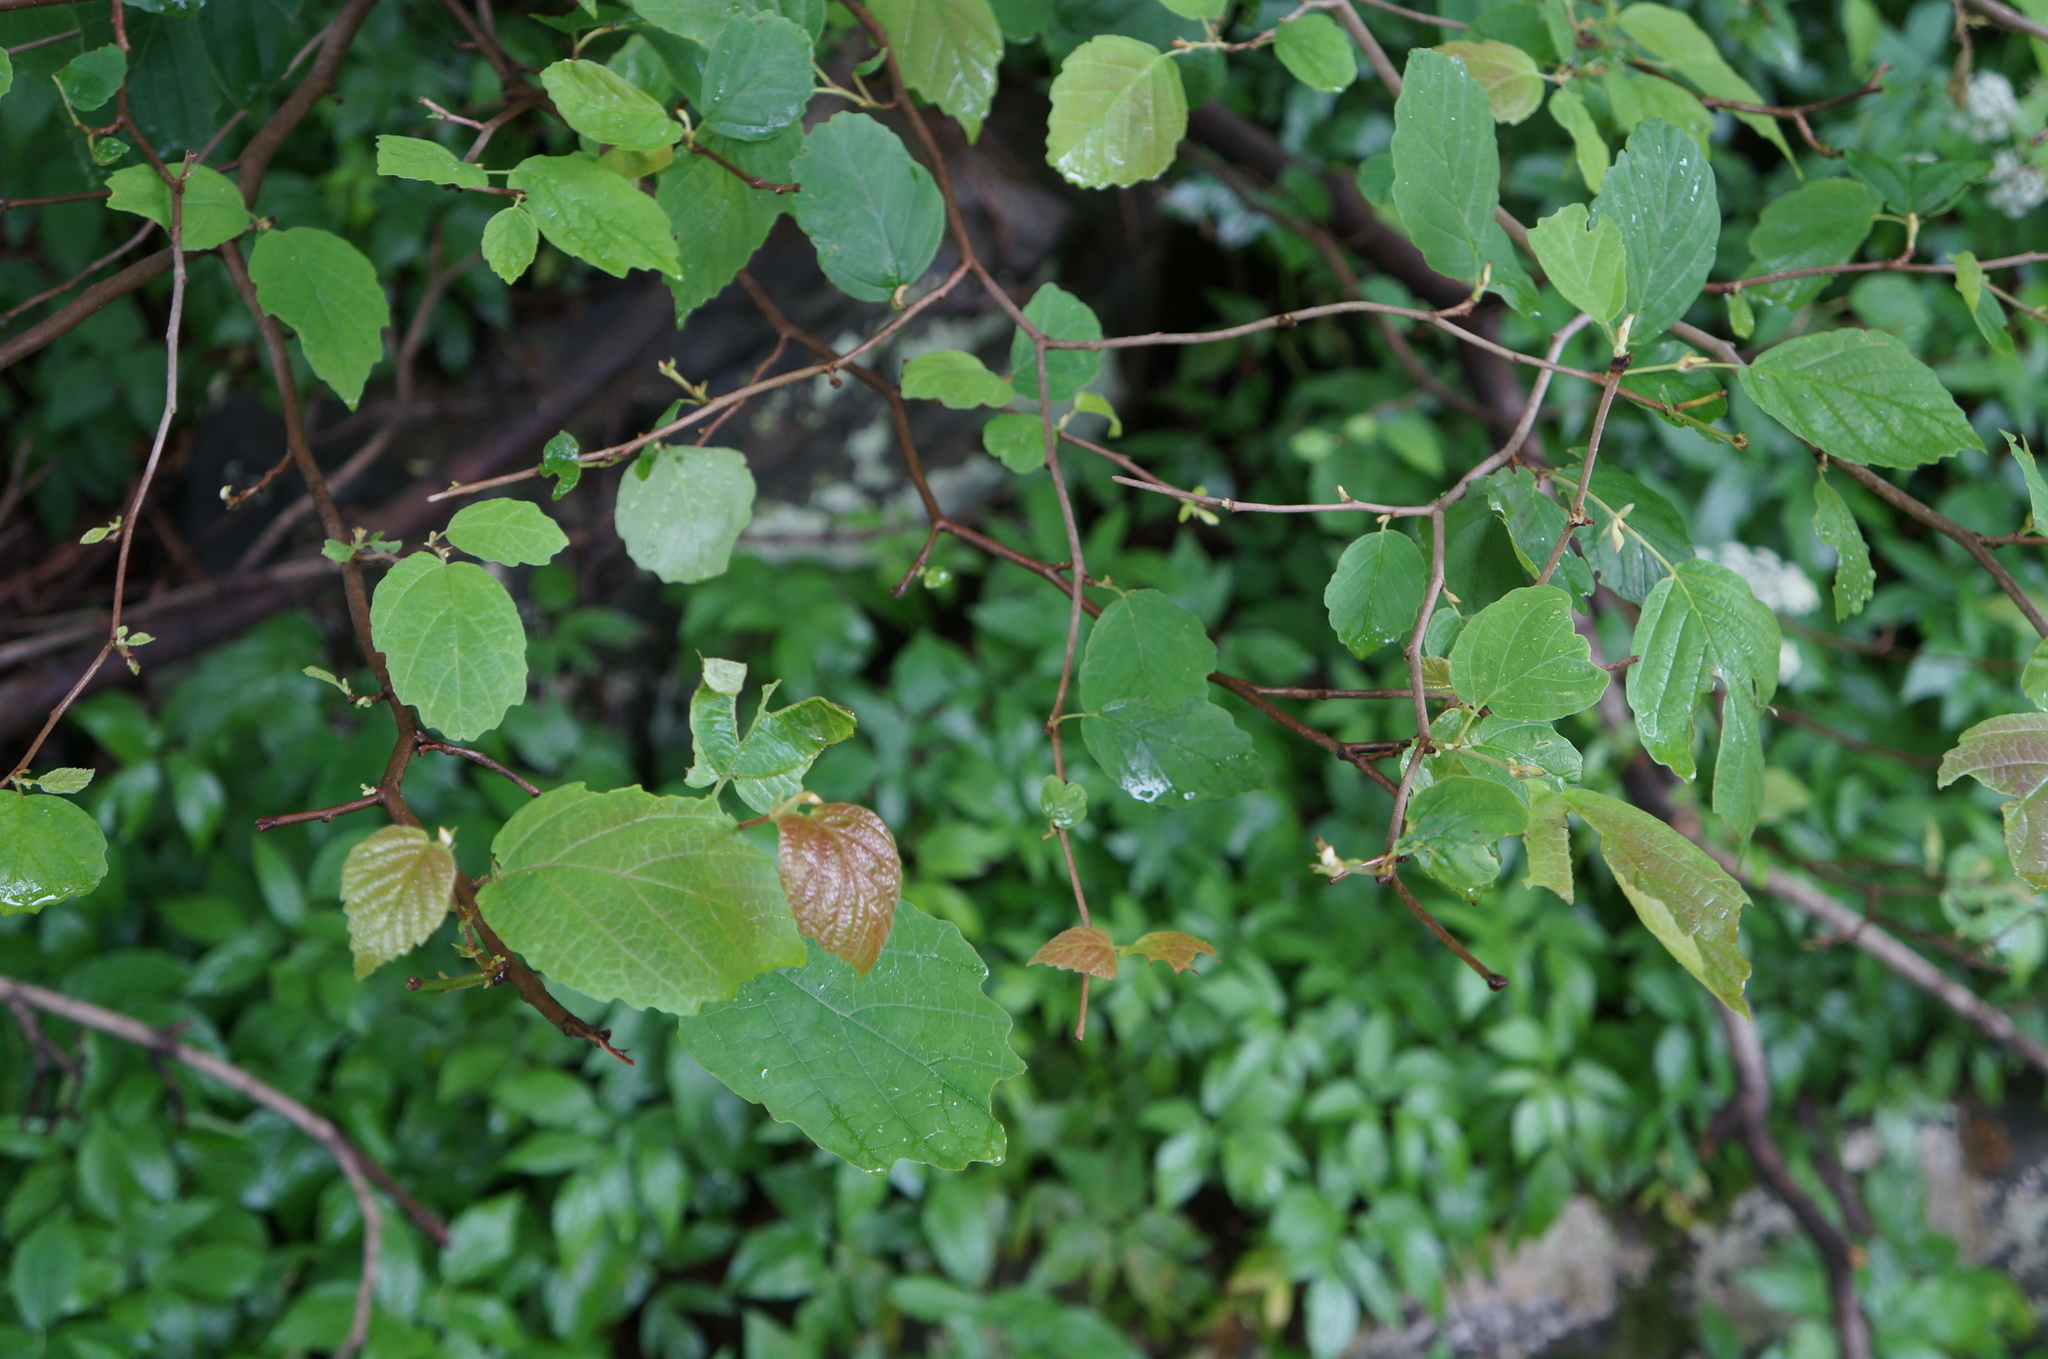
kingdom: Plantae
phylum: Tracheophyta
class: Magnoliopsida
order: Saxifragales
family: Hamamelidaceae
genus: Hamamelis
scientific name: Hamamelis virginiana
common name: Witch-hazel
